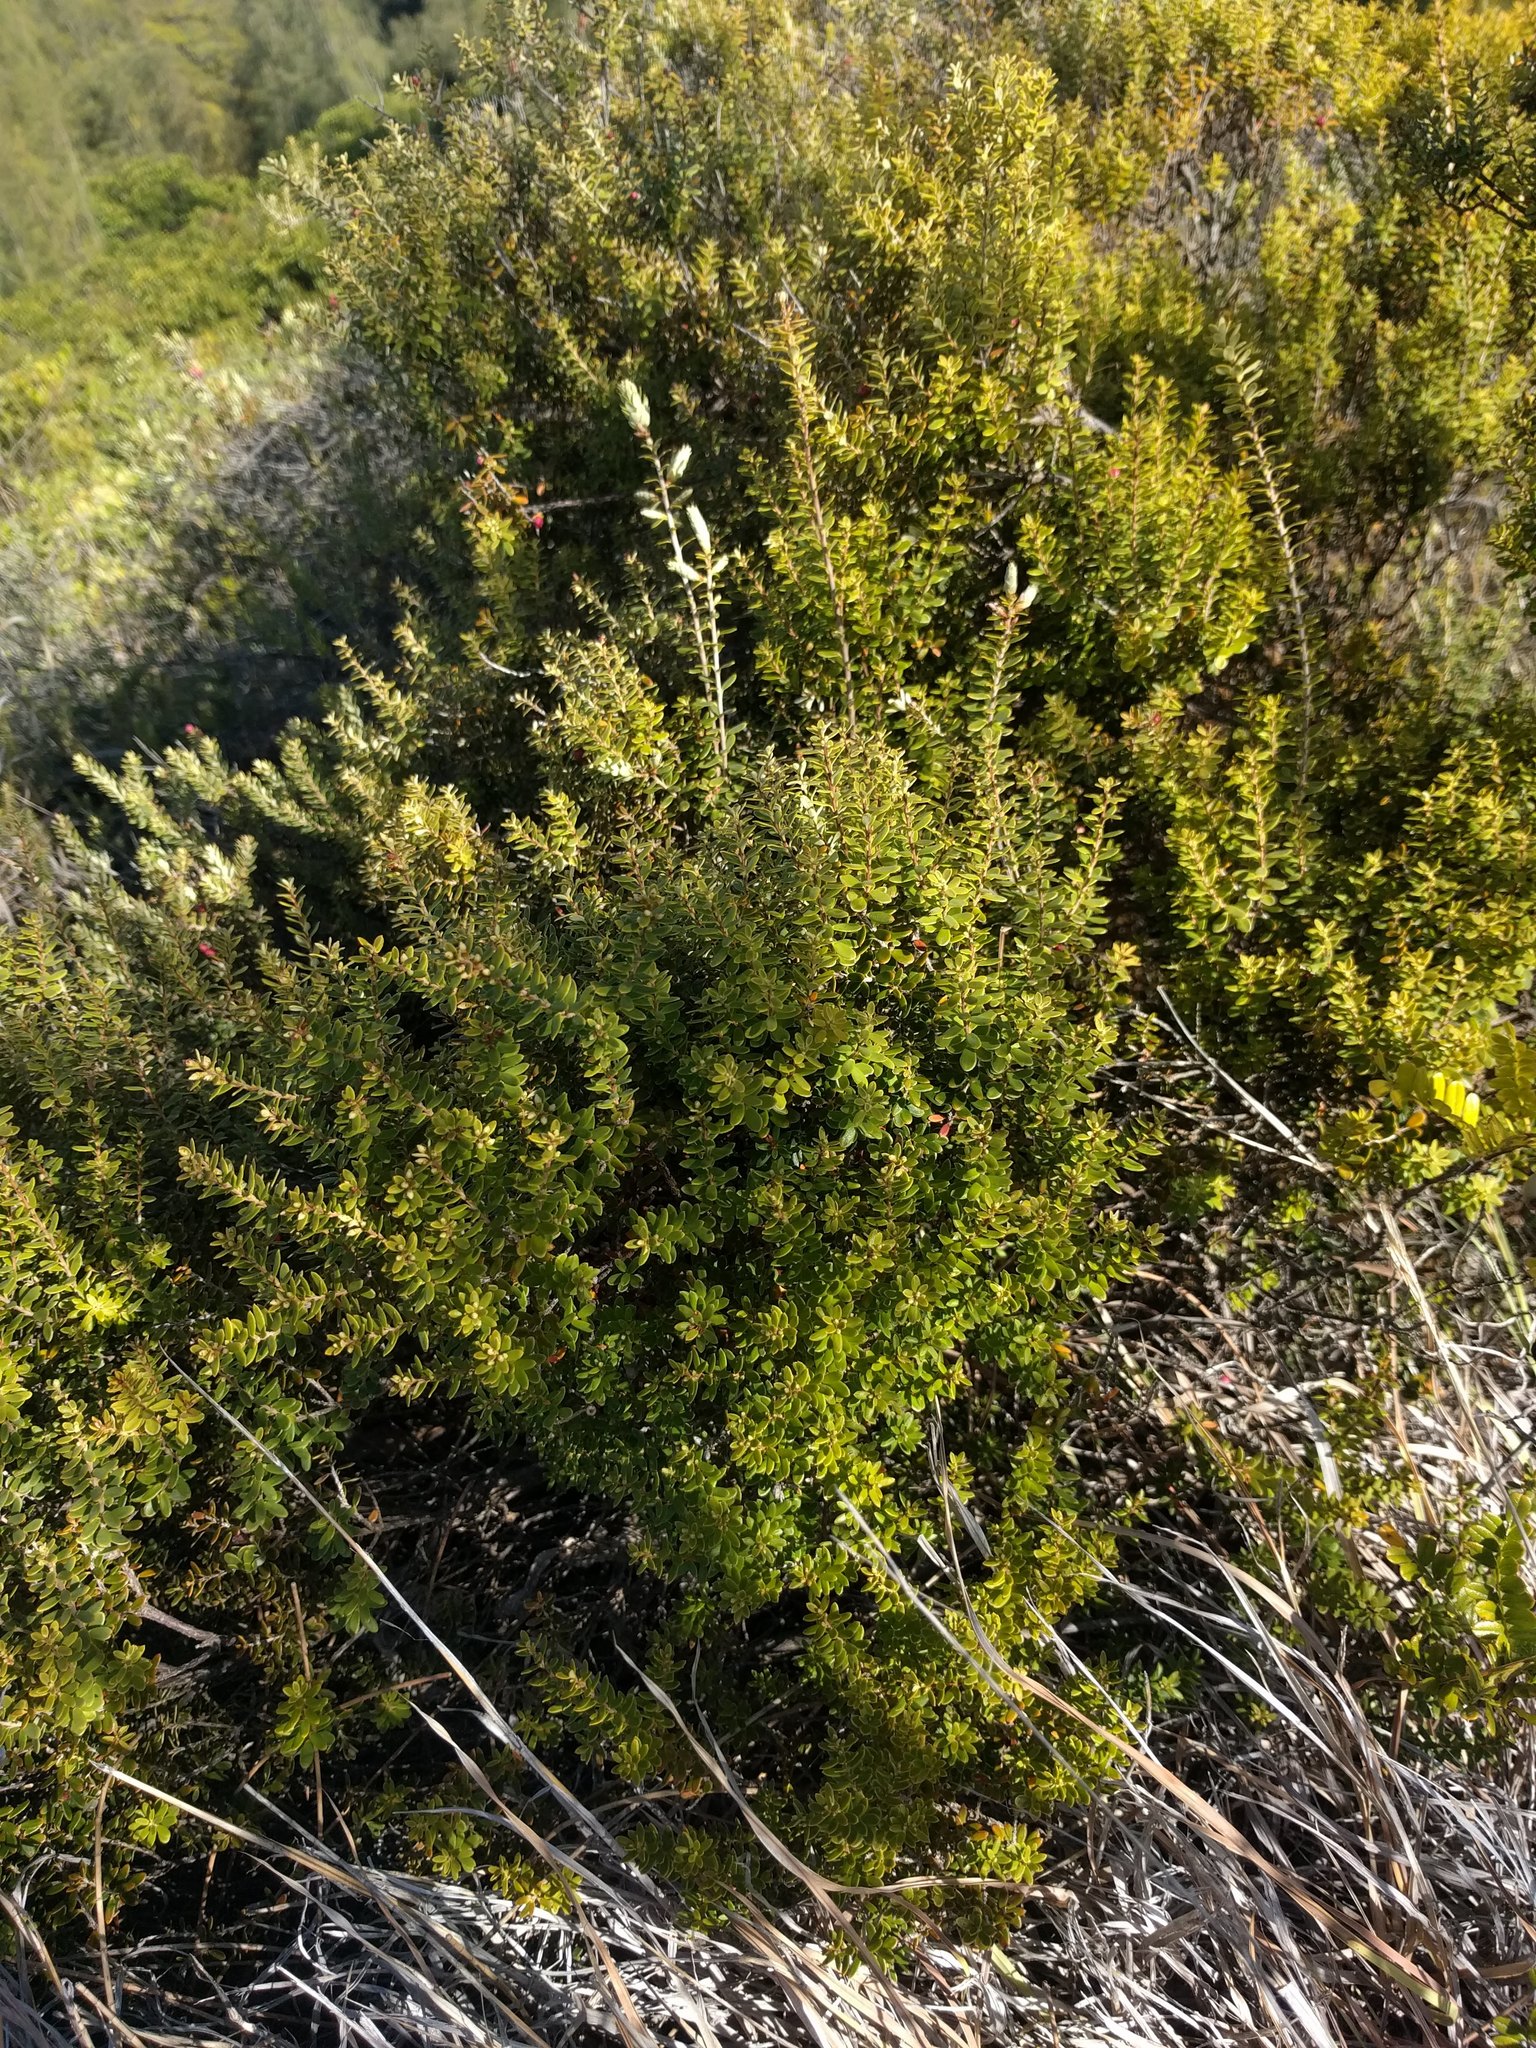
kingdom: Plantae
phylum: Tracheophyta
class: Magnoliopsida
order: Ericales
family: Ericaceae
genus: Leptecophylla
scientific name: Leptecophylla tameiameiae
